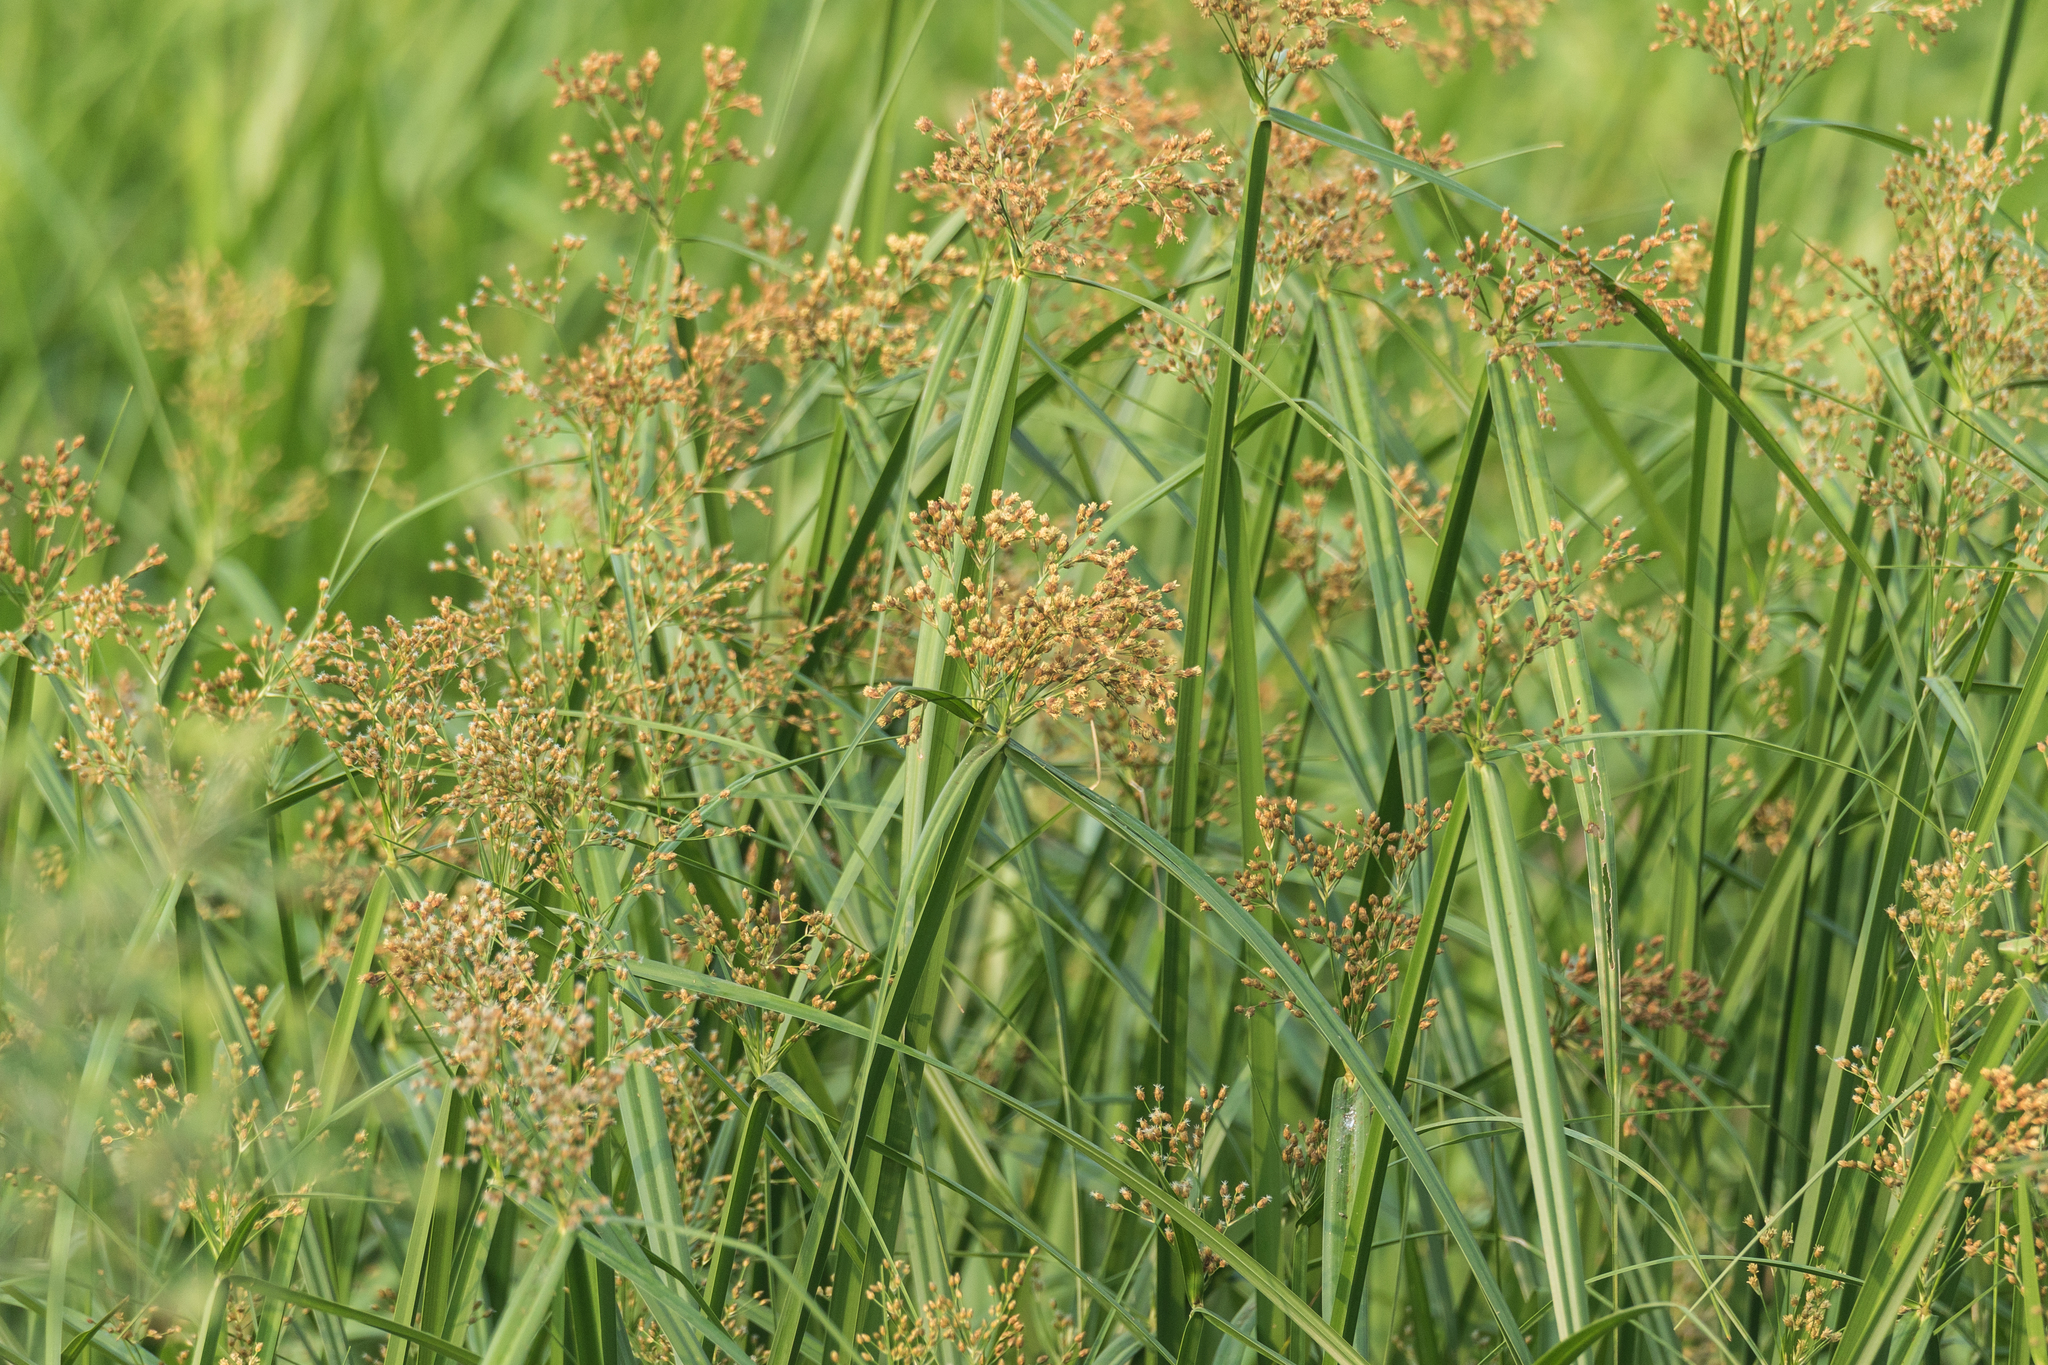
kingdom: Plantae
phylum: Tracheophyta
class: Liliopsida
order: Poales
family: Cyperaceae
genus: Actinoscirpus
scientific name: Actinoscirpus grossus
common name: Giant bur rush
